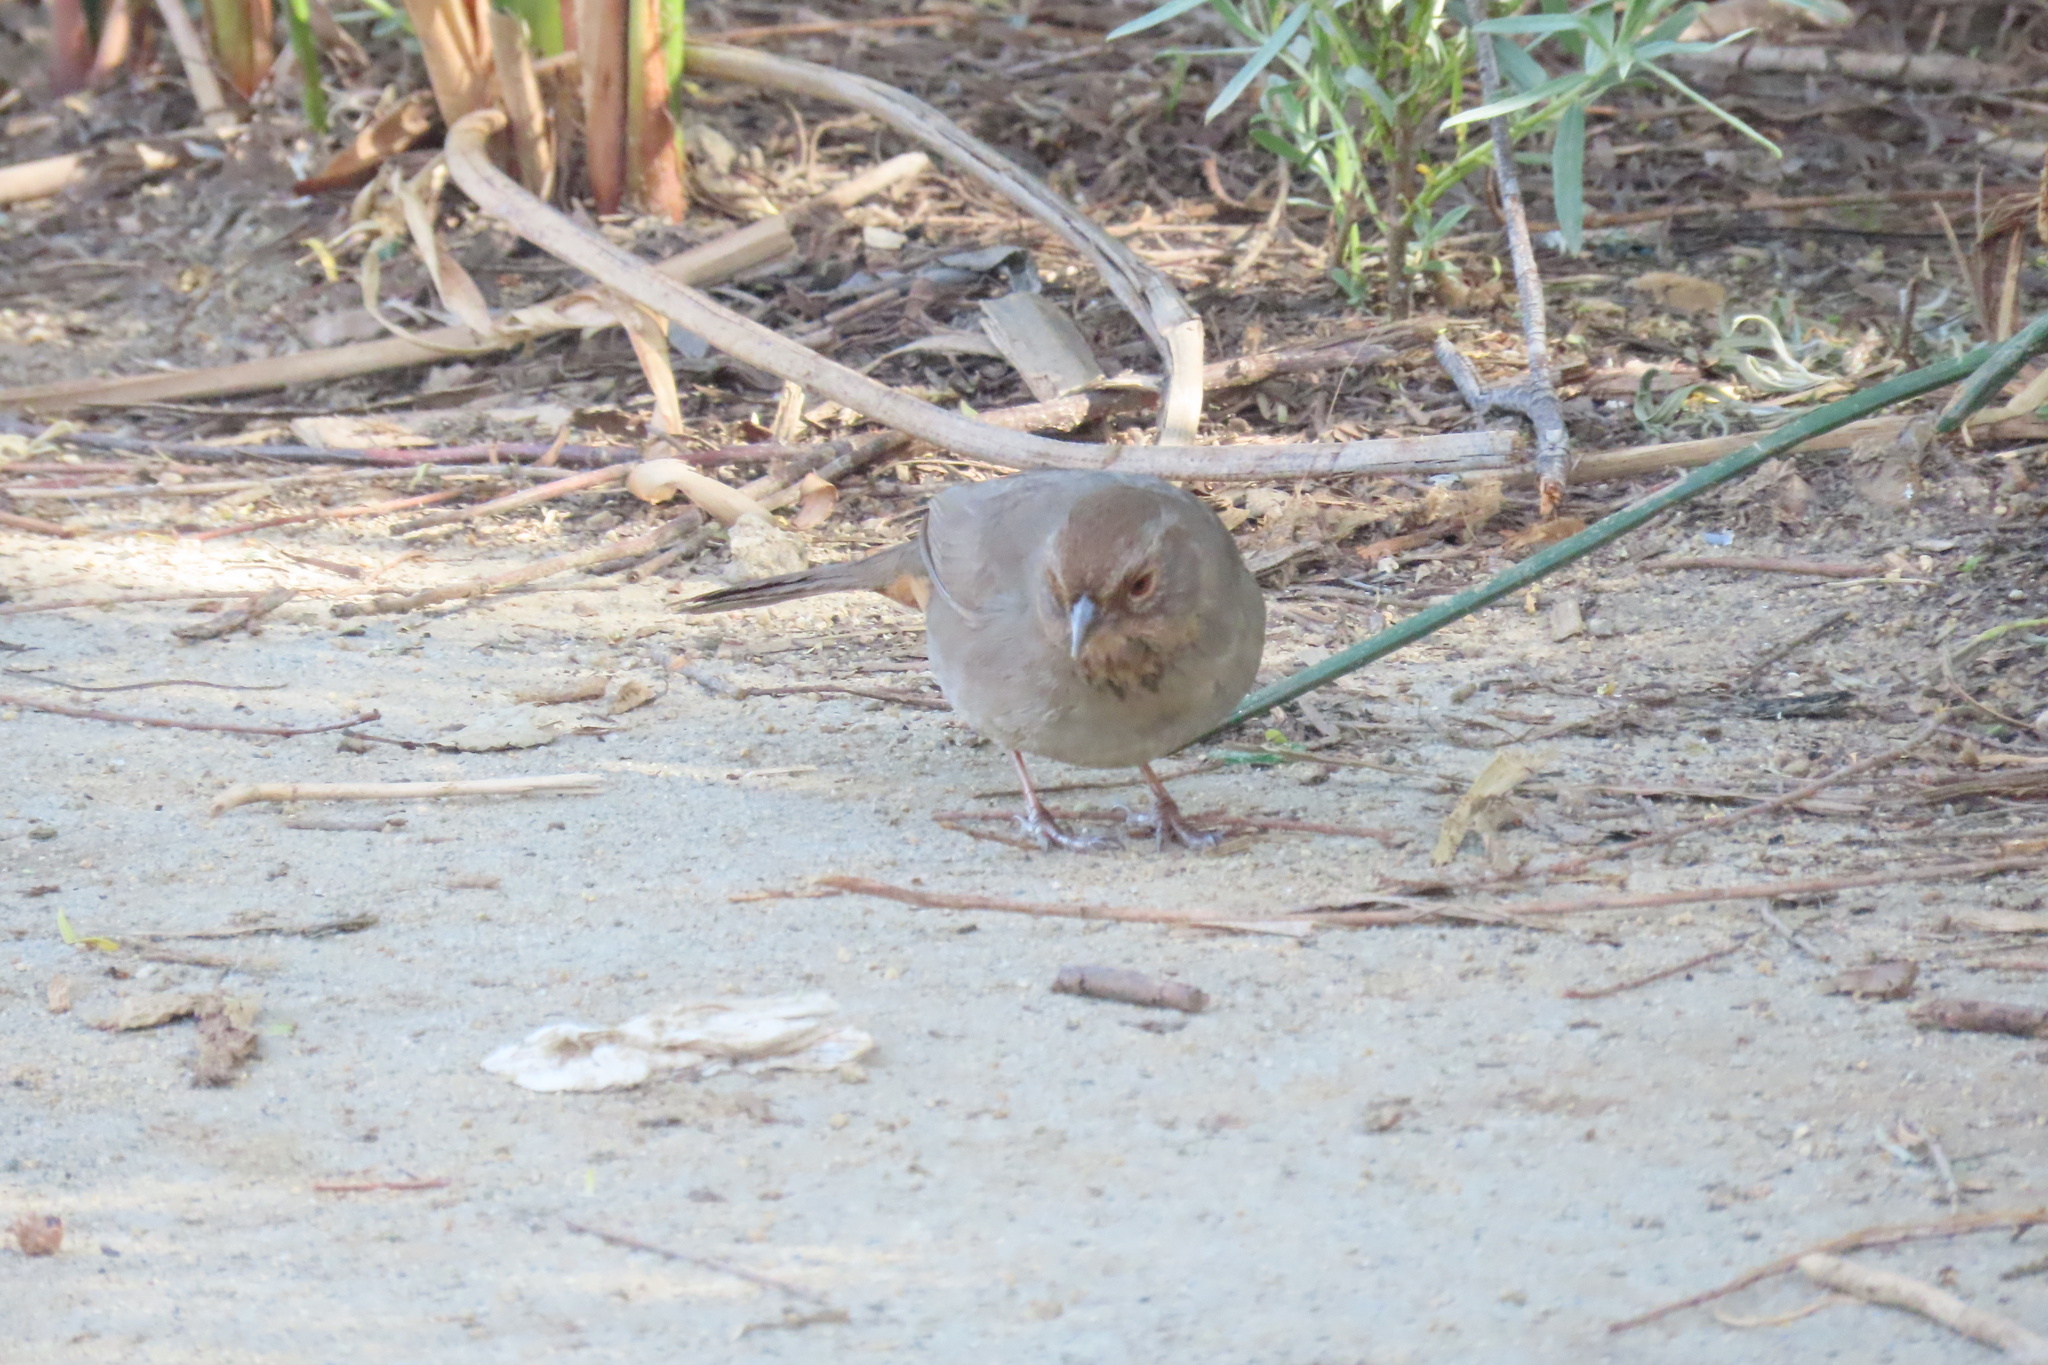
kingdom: Animalia
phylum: Chordata
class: Aves
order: Passeriformes
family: Passerellidae
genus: Melozone
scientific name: Melozone crissalis
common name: California towhee
